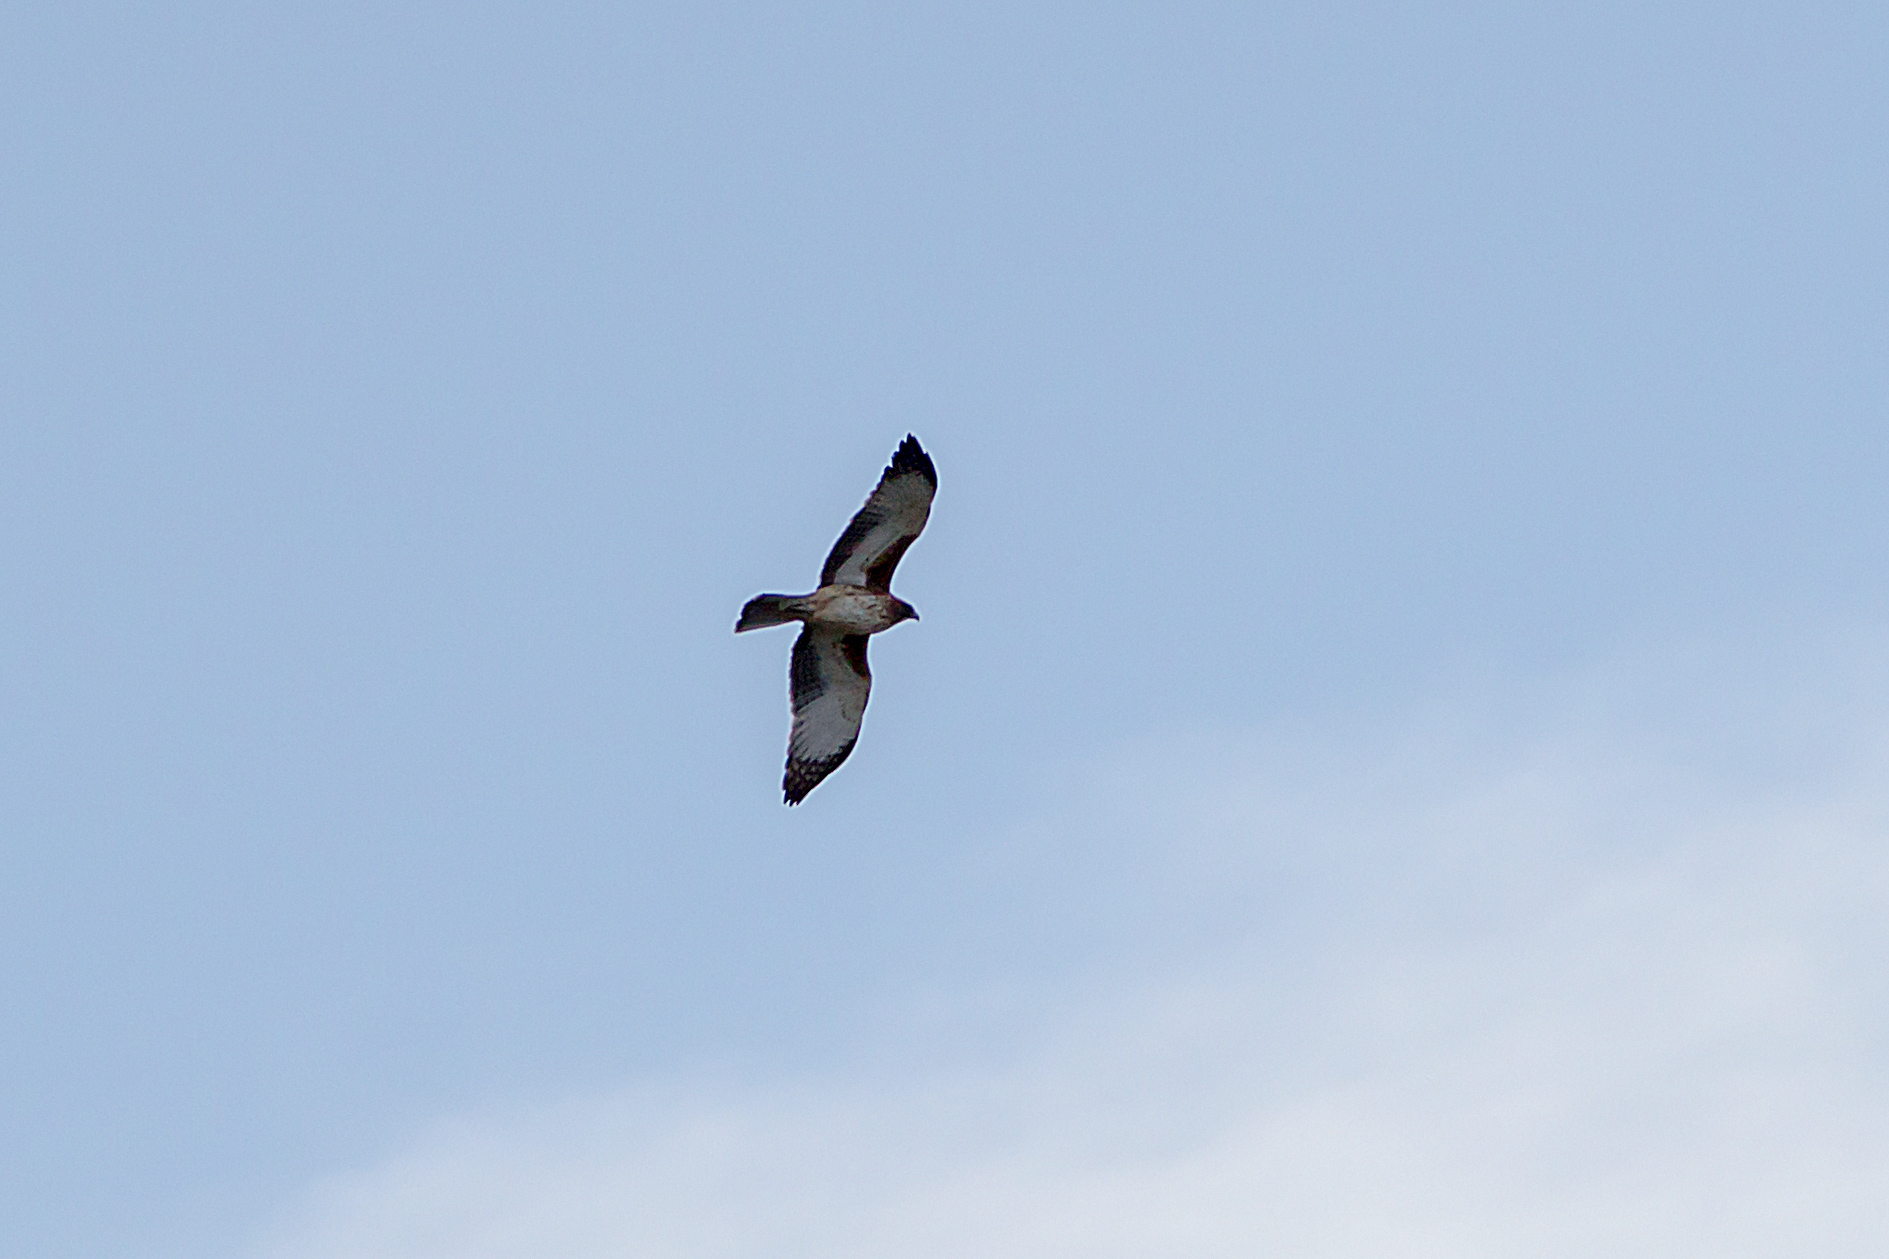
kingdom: Animalia
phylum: Chordata
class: Aves
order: Accipitriformes
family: Accipitridae
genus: Hieraaetus
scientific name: Hieraaetus morphnoides
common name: Little eagle
